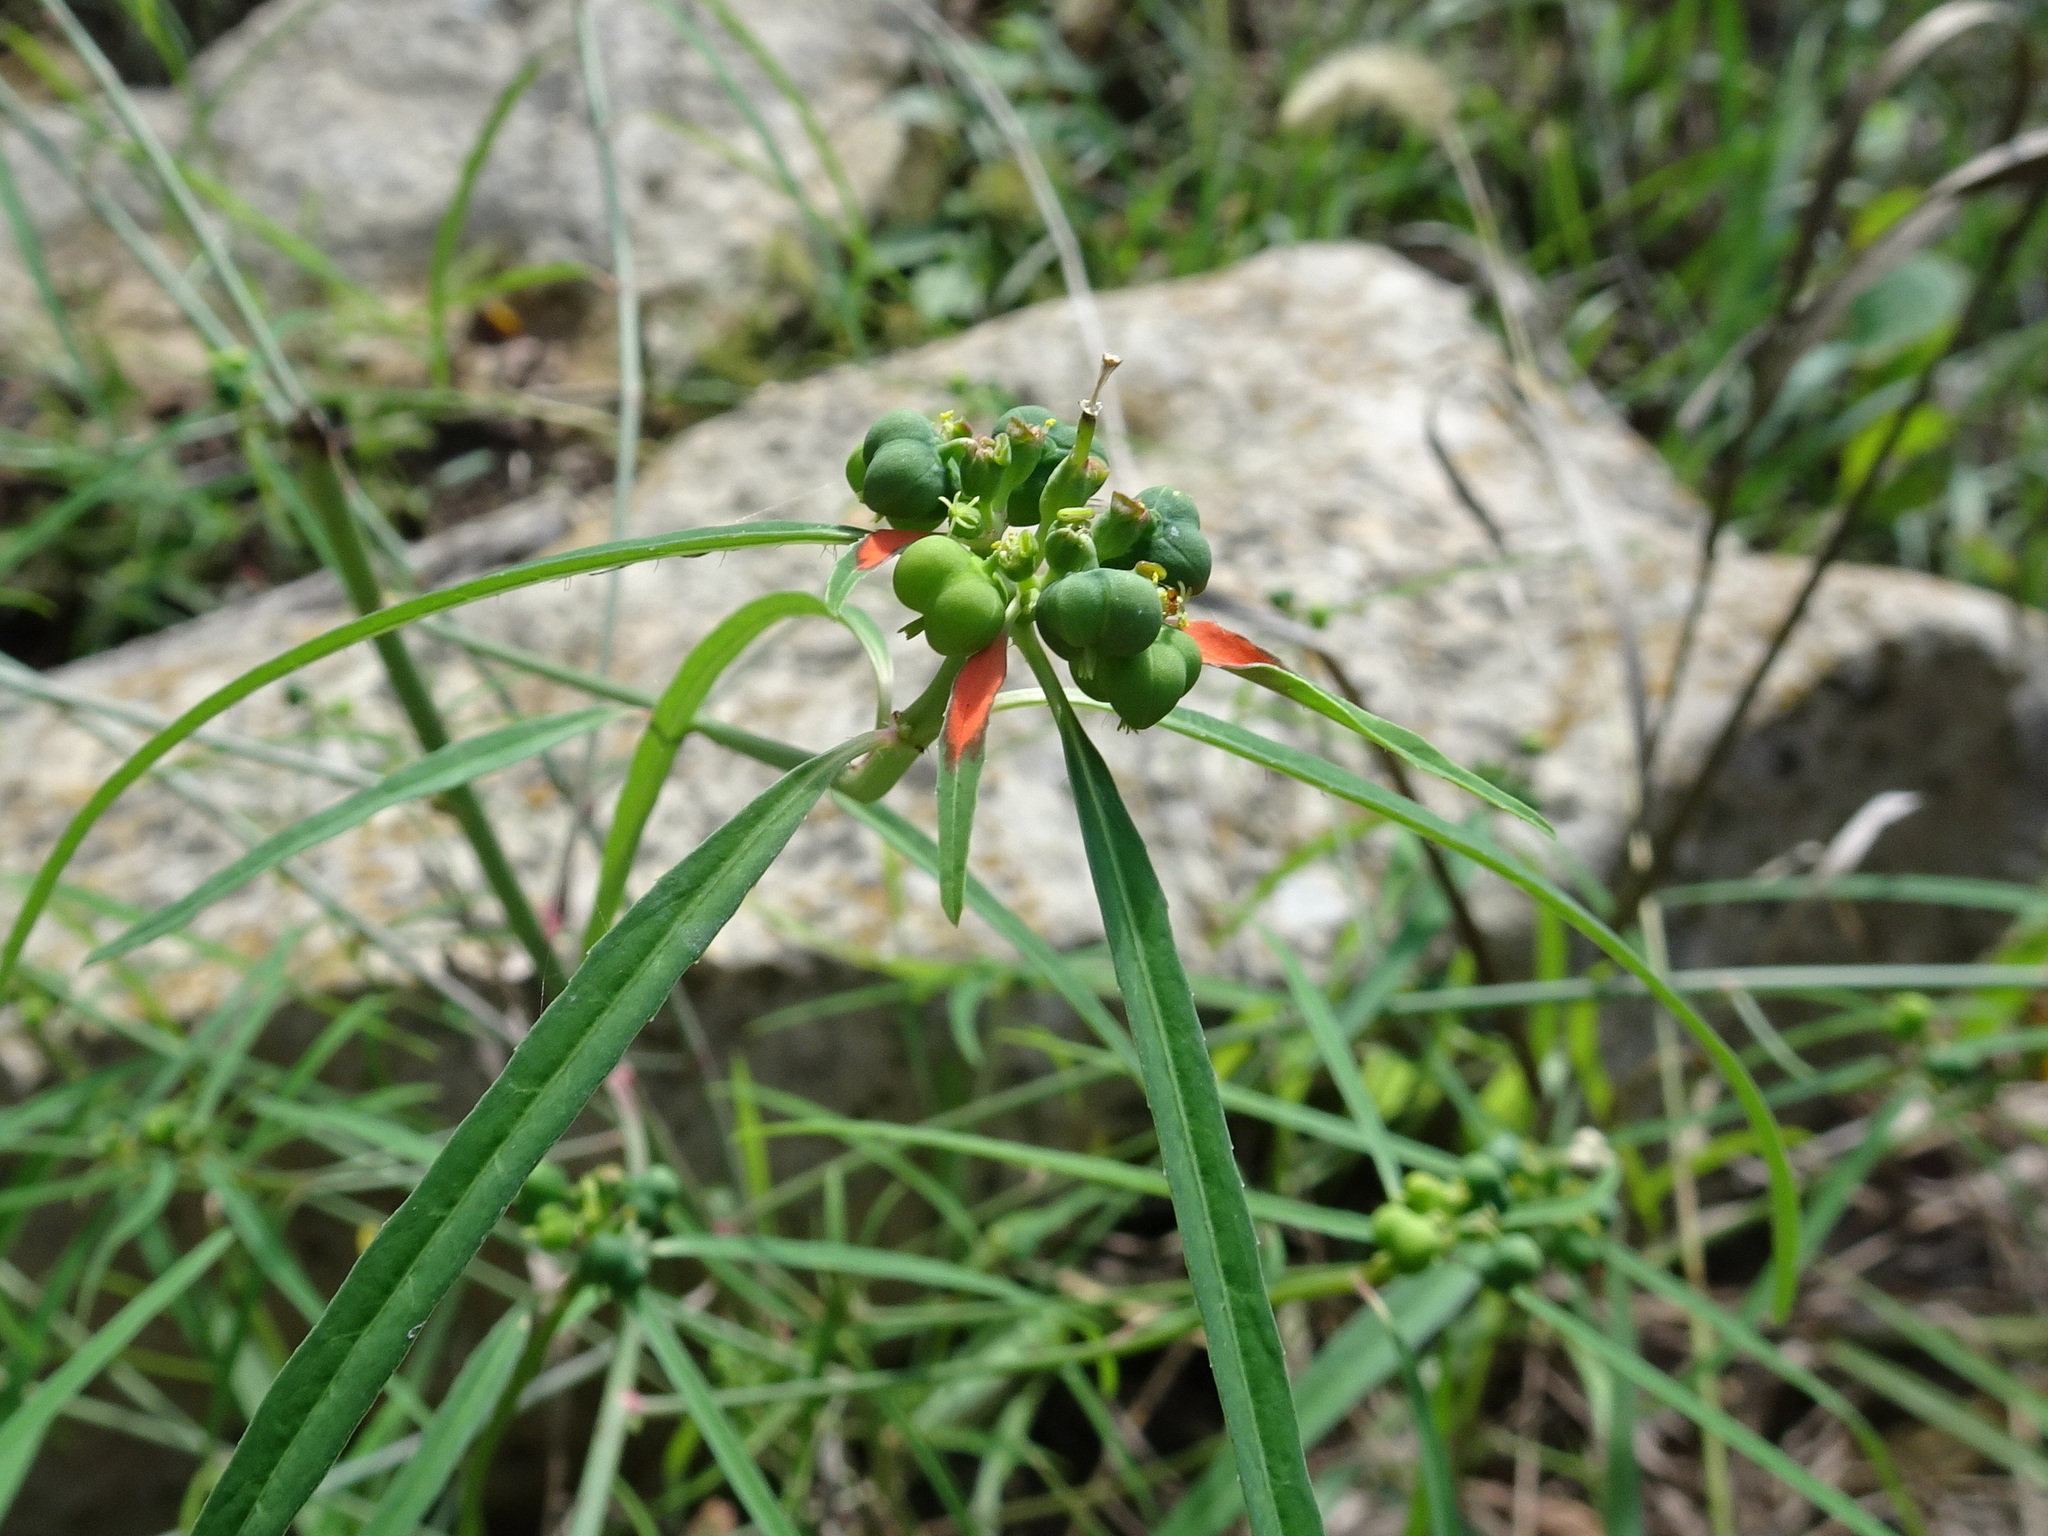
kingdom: Plantae
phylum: Tracheophyta
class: Magnoliopsida
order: Malpighiales
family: Euphorbiaceae
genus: Euphorbia
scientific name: Euphorbia heterophylla
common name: Mexican fireplant
